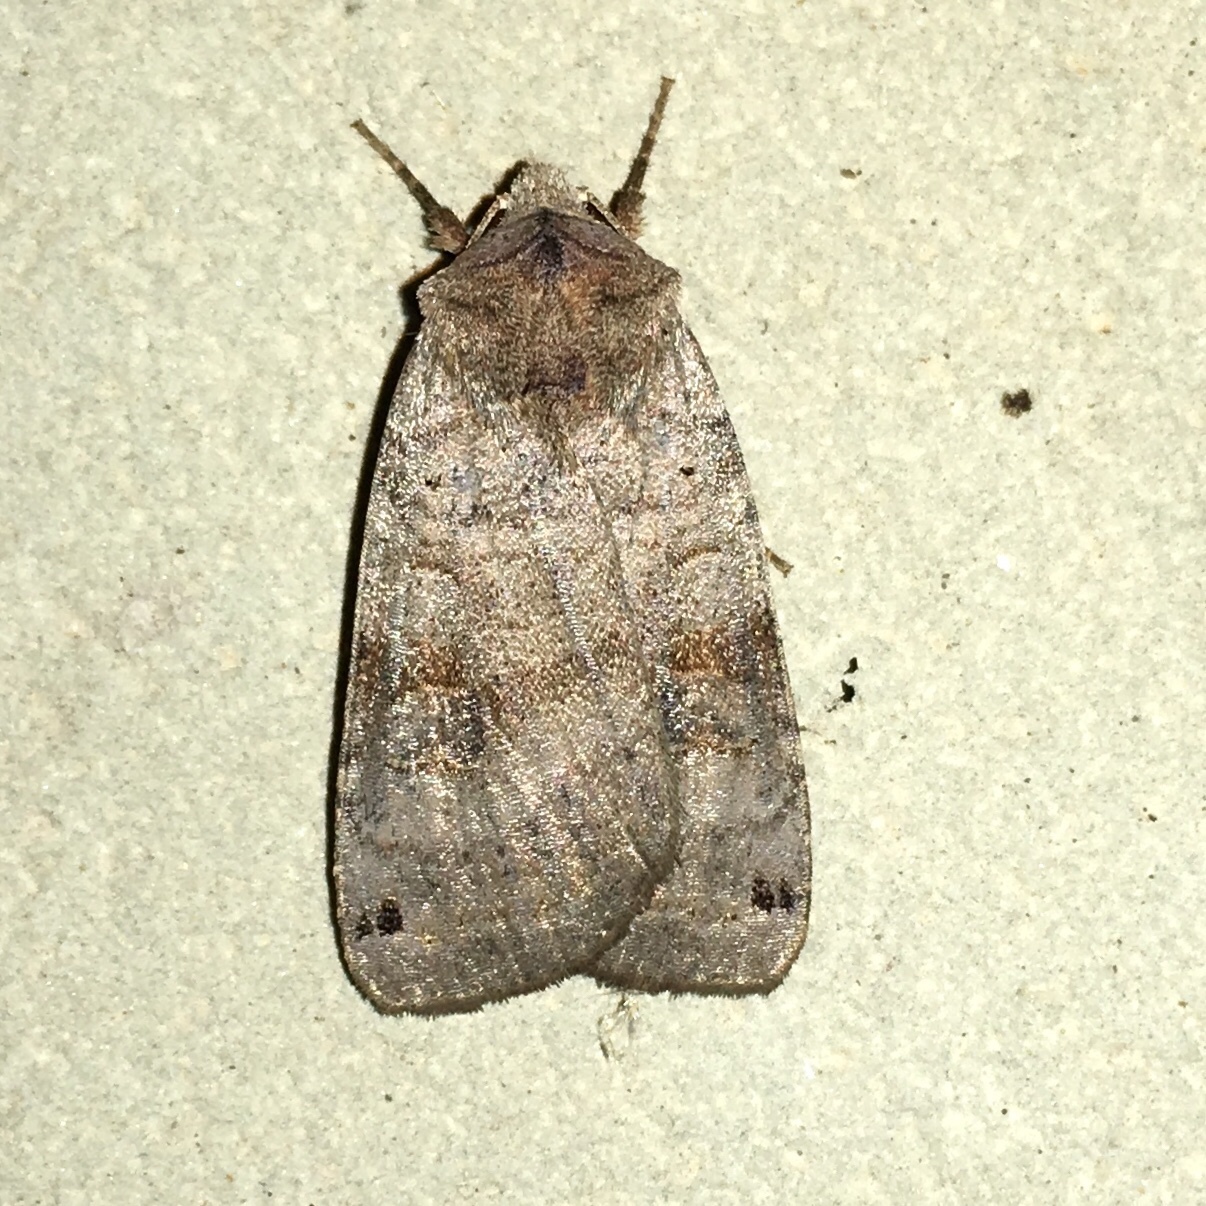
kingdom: Animalia
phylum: Arthropoda
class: Insecta
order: Lepidoptera
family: Noctuidae
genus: Xestia
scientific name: Xestia smithii
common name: Smith's dart
